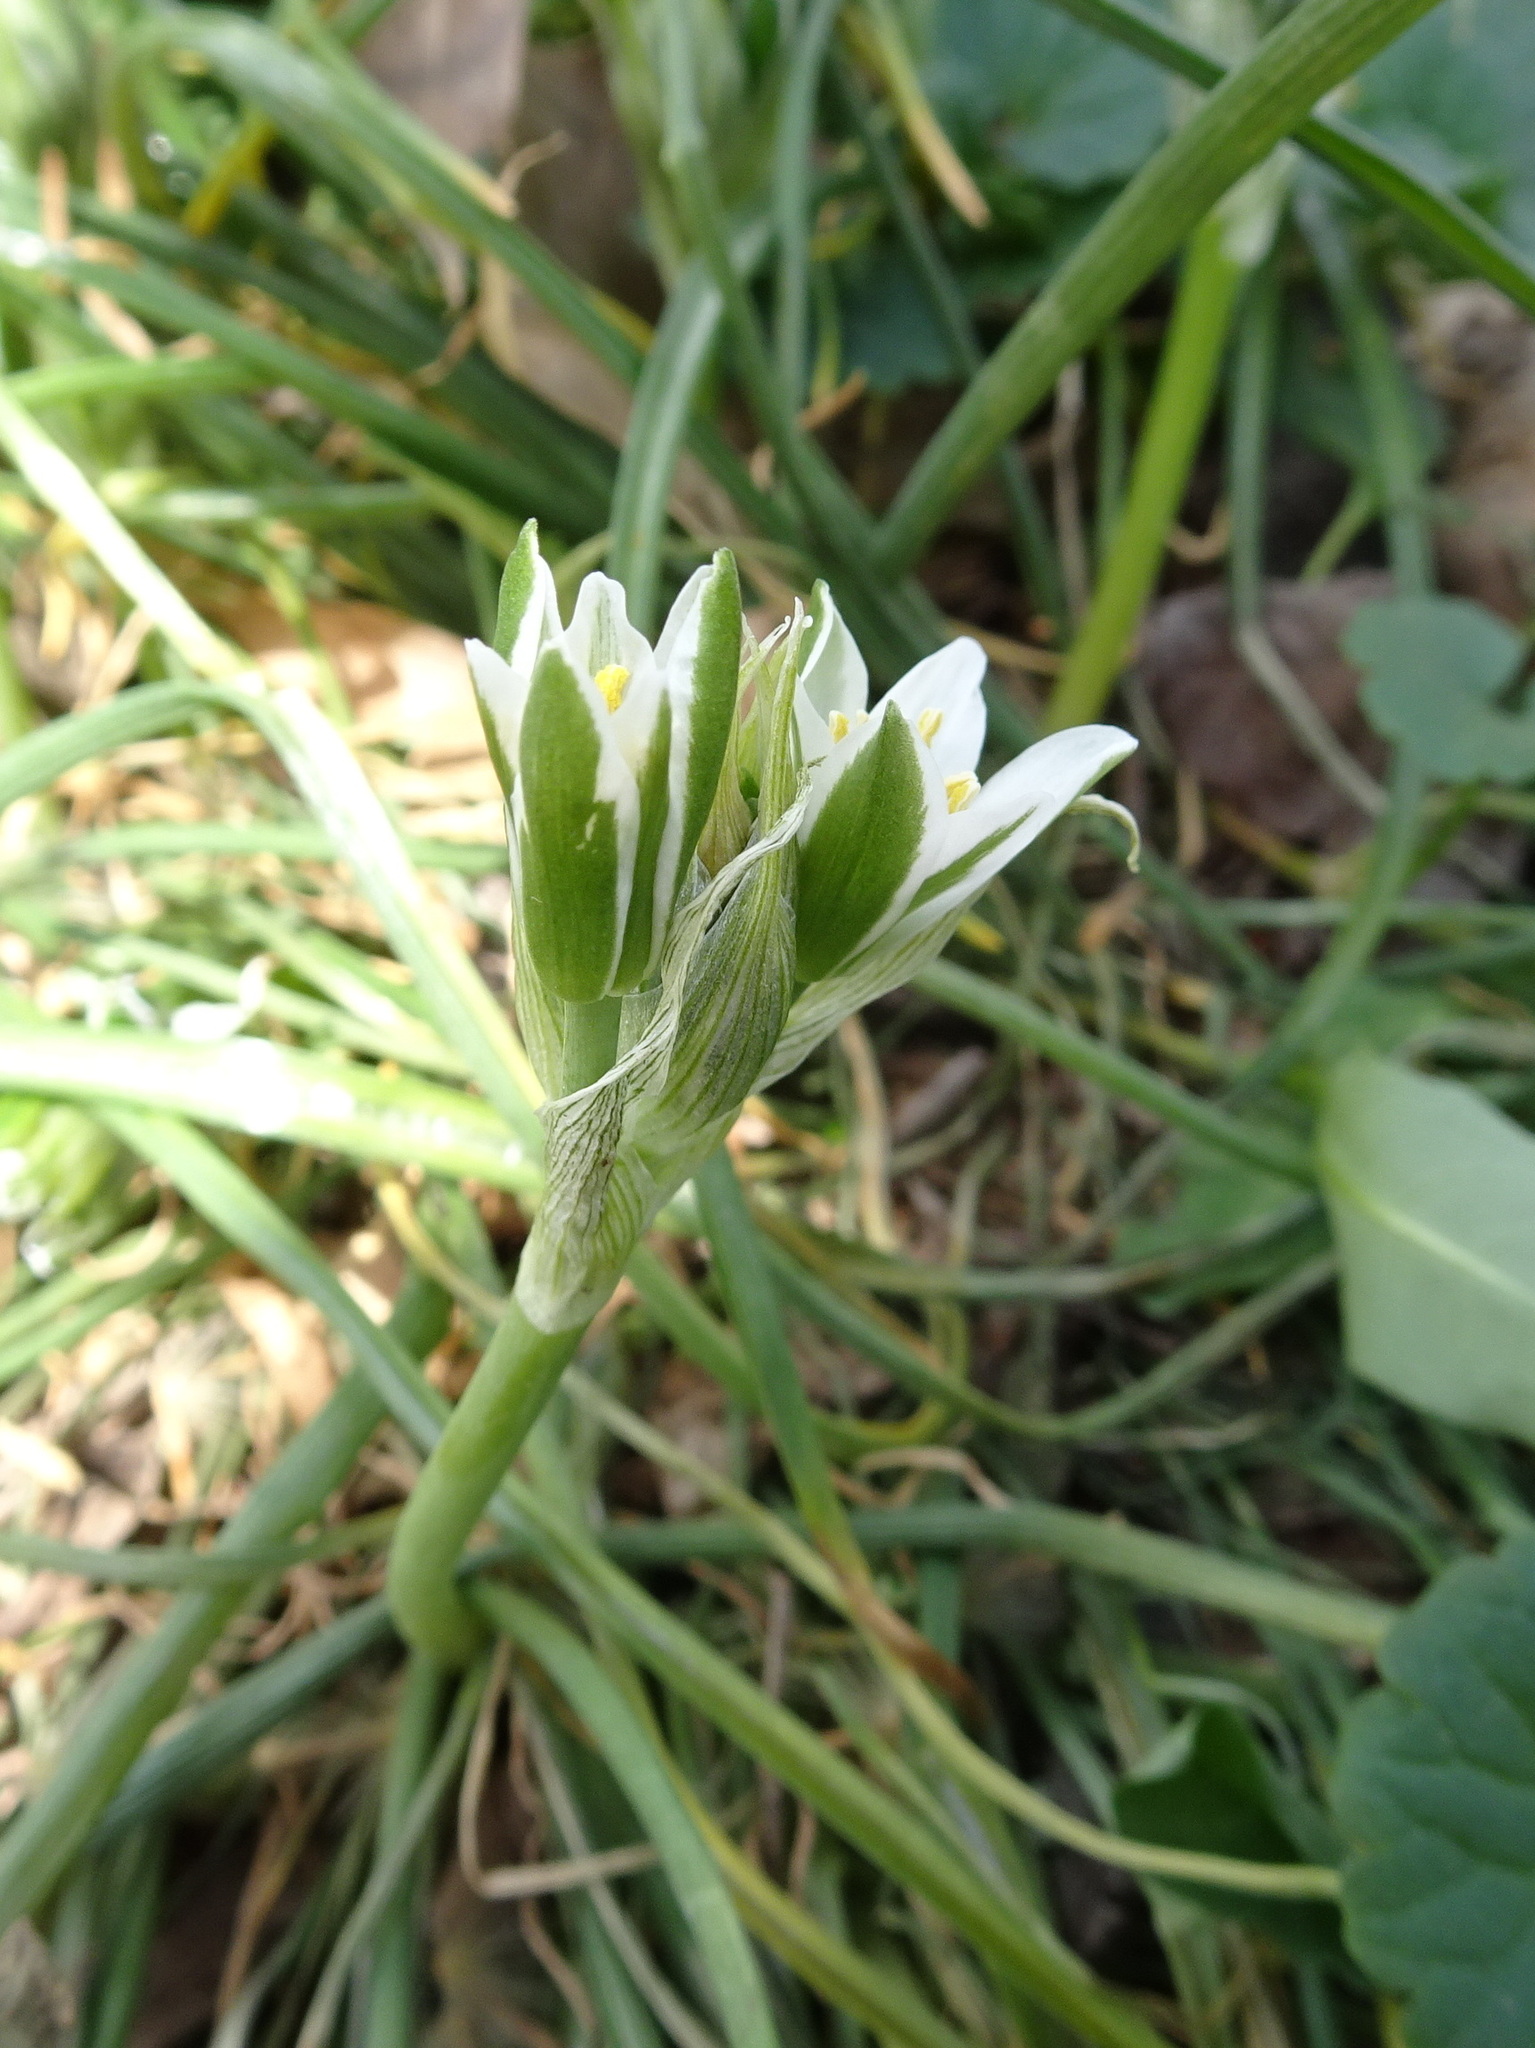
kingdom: Plantae
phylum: Tracheophyta
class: Liliopsida
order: Asparagales
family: Asparagaceae
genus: Ornithogalum
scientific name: Ornithogalum umbellatum
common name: Garden star-of-bethlehem
